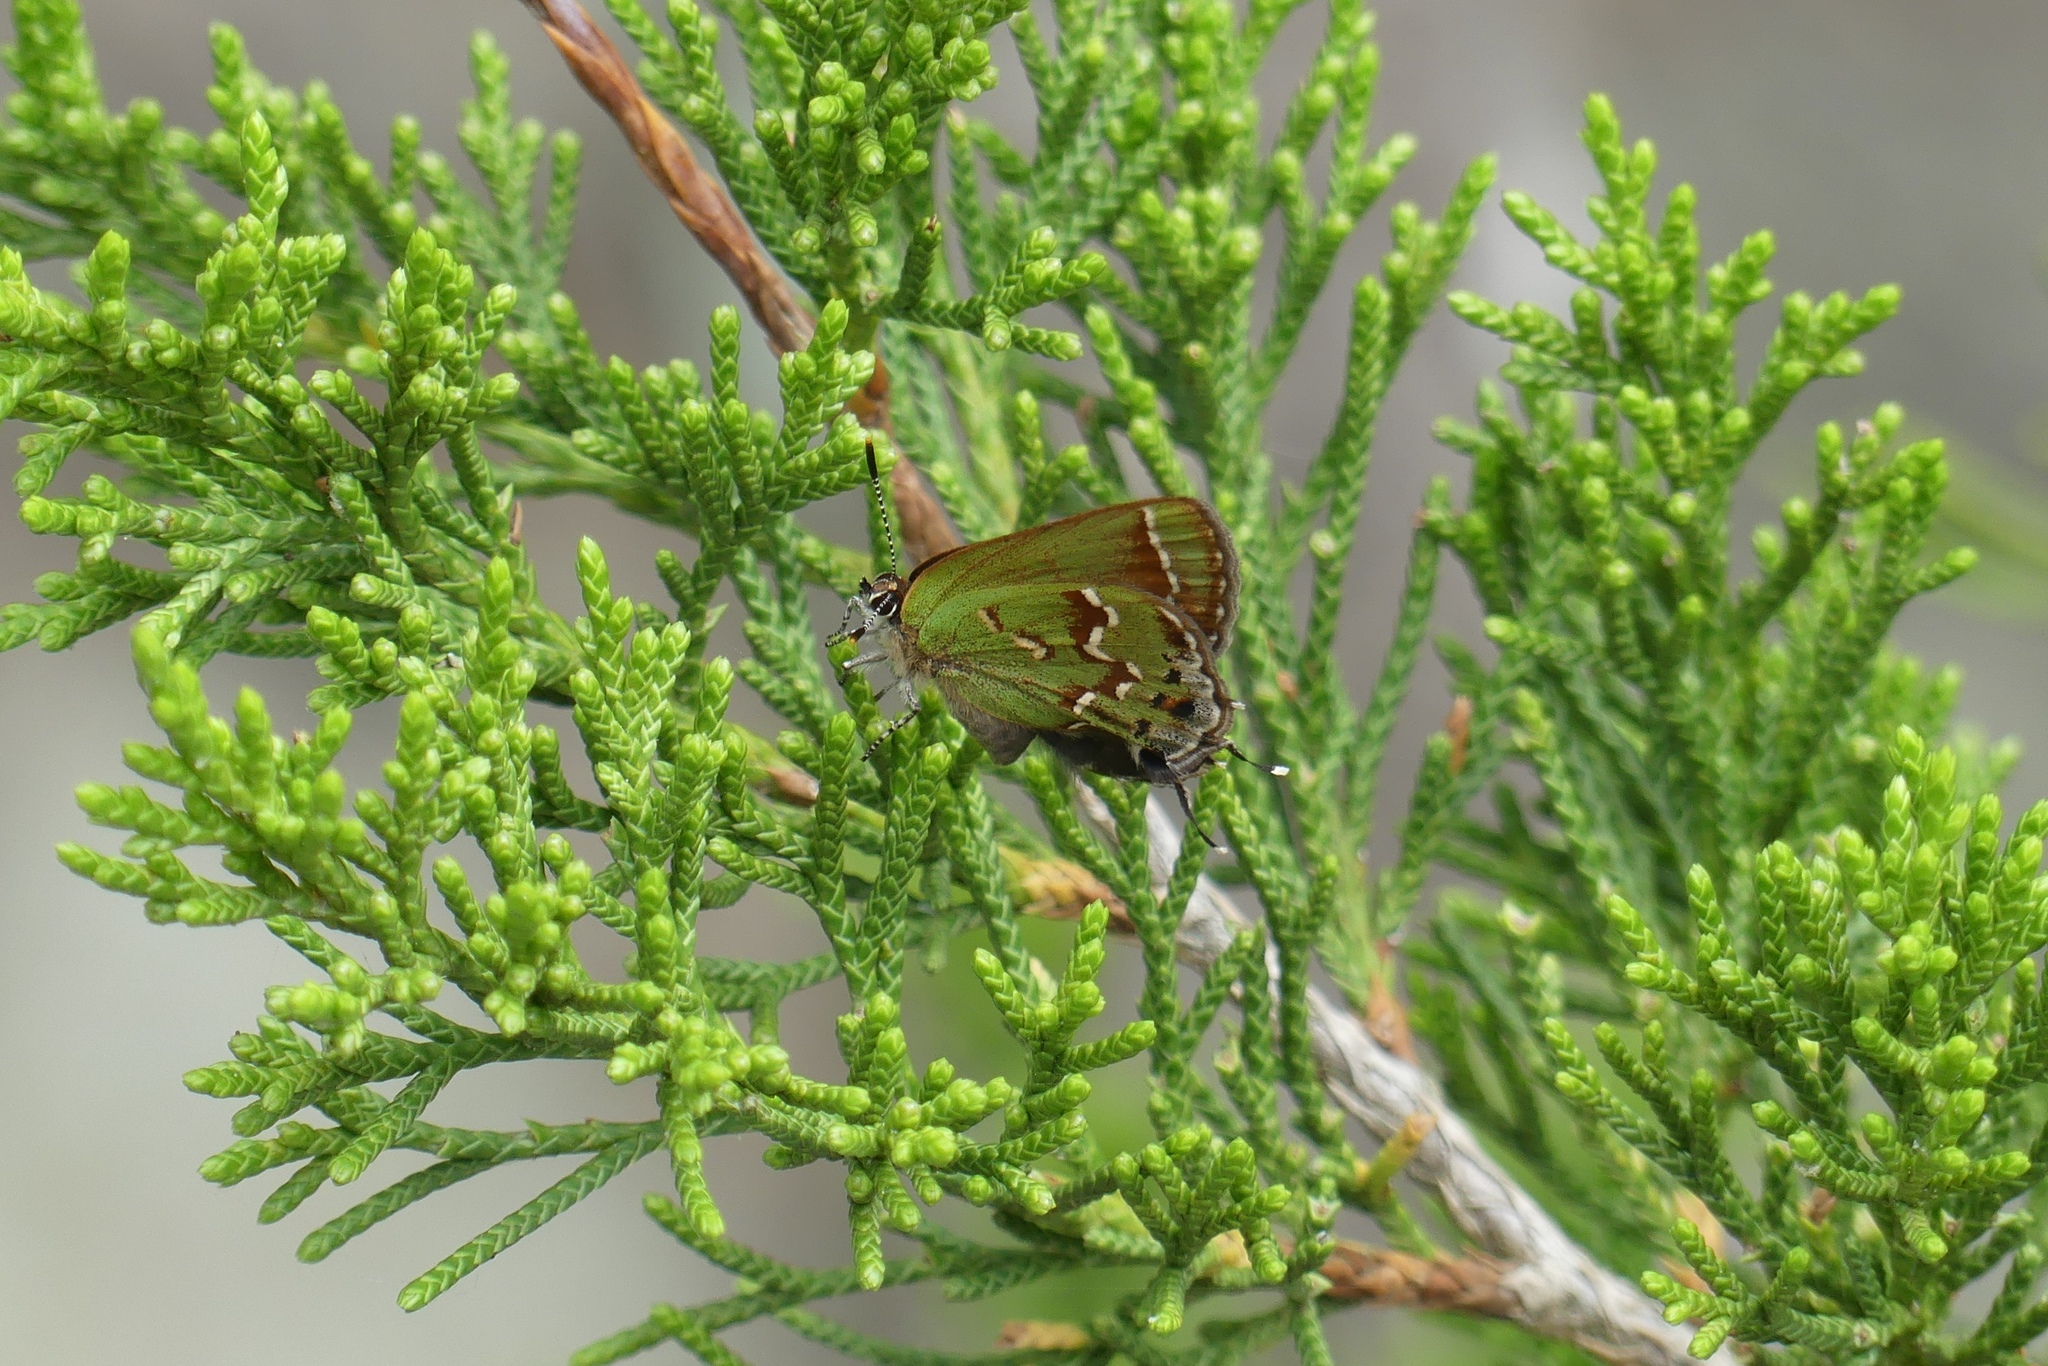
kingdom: Animalia
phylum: Arthropoda
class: Insecta
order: Lepidoptera
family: Lycaenidae
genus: Mitoura
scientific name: Mitoura gryneus
